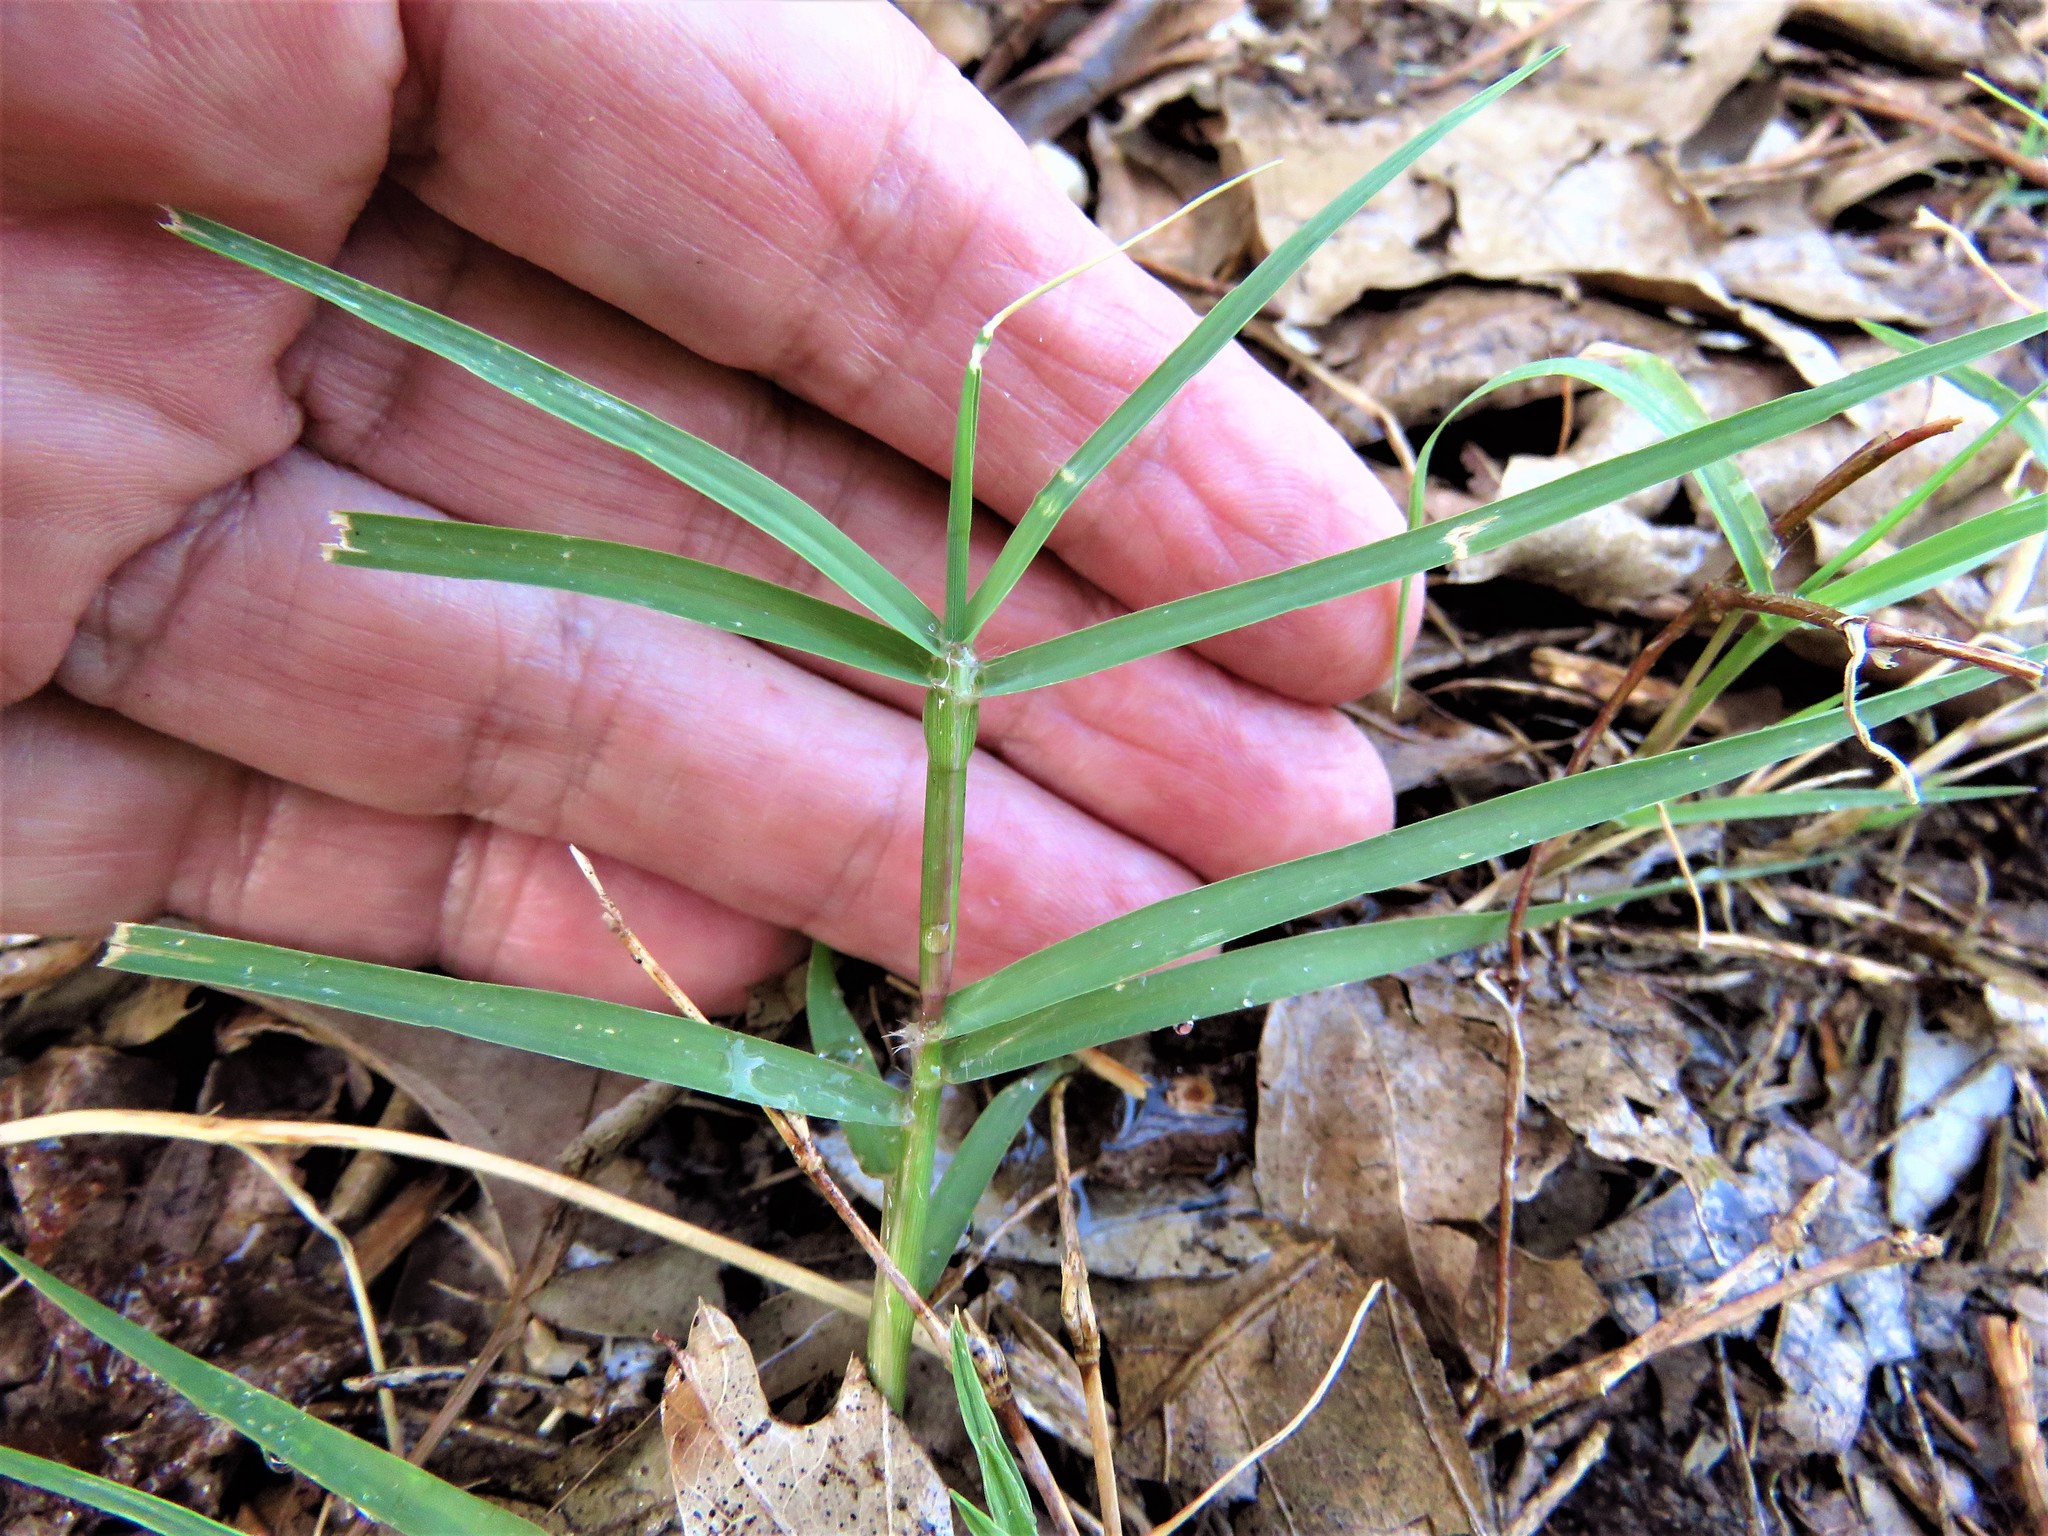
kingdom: Plantae
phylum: Tracheophyta
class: Liliopsida
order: Poales
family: Poaceae
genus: Cynodon
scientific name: Cynodon dactylon
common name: Bermuda grass
